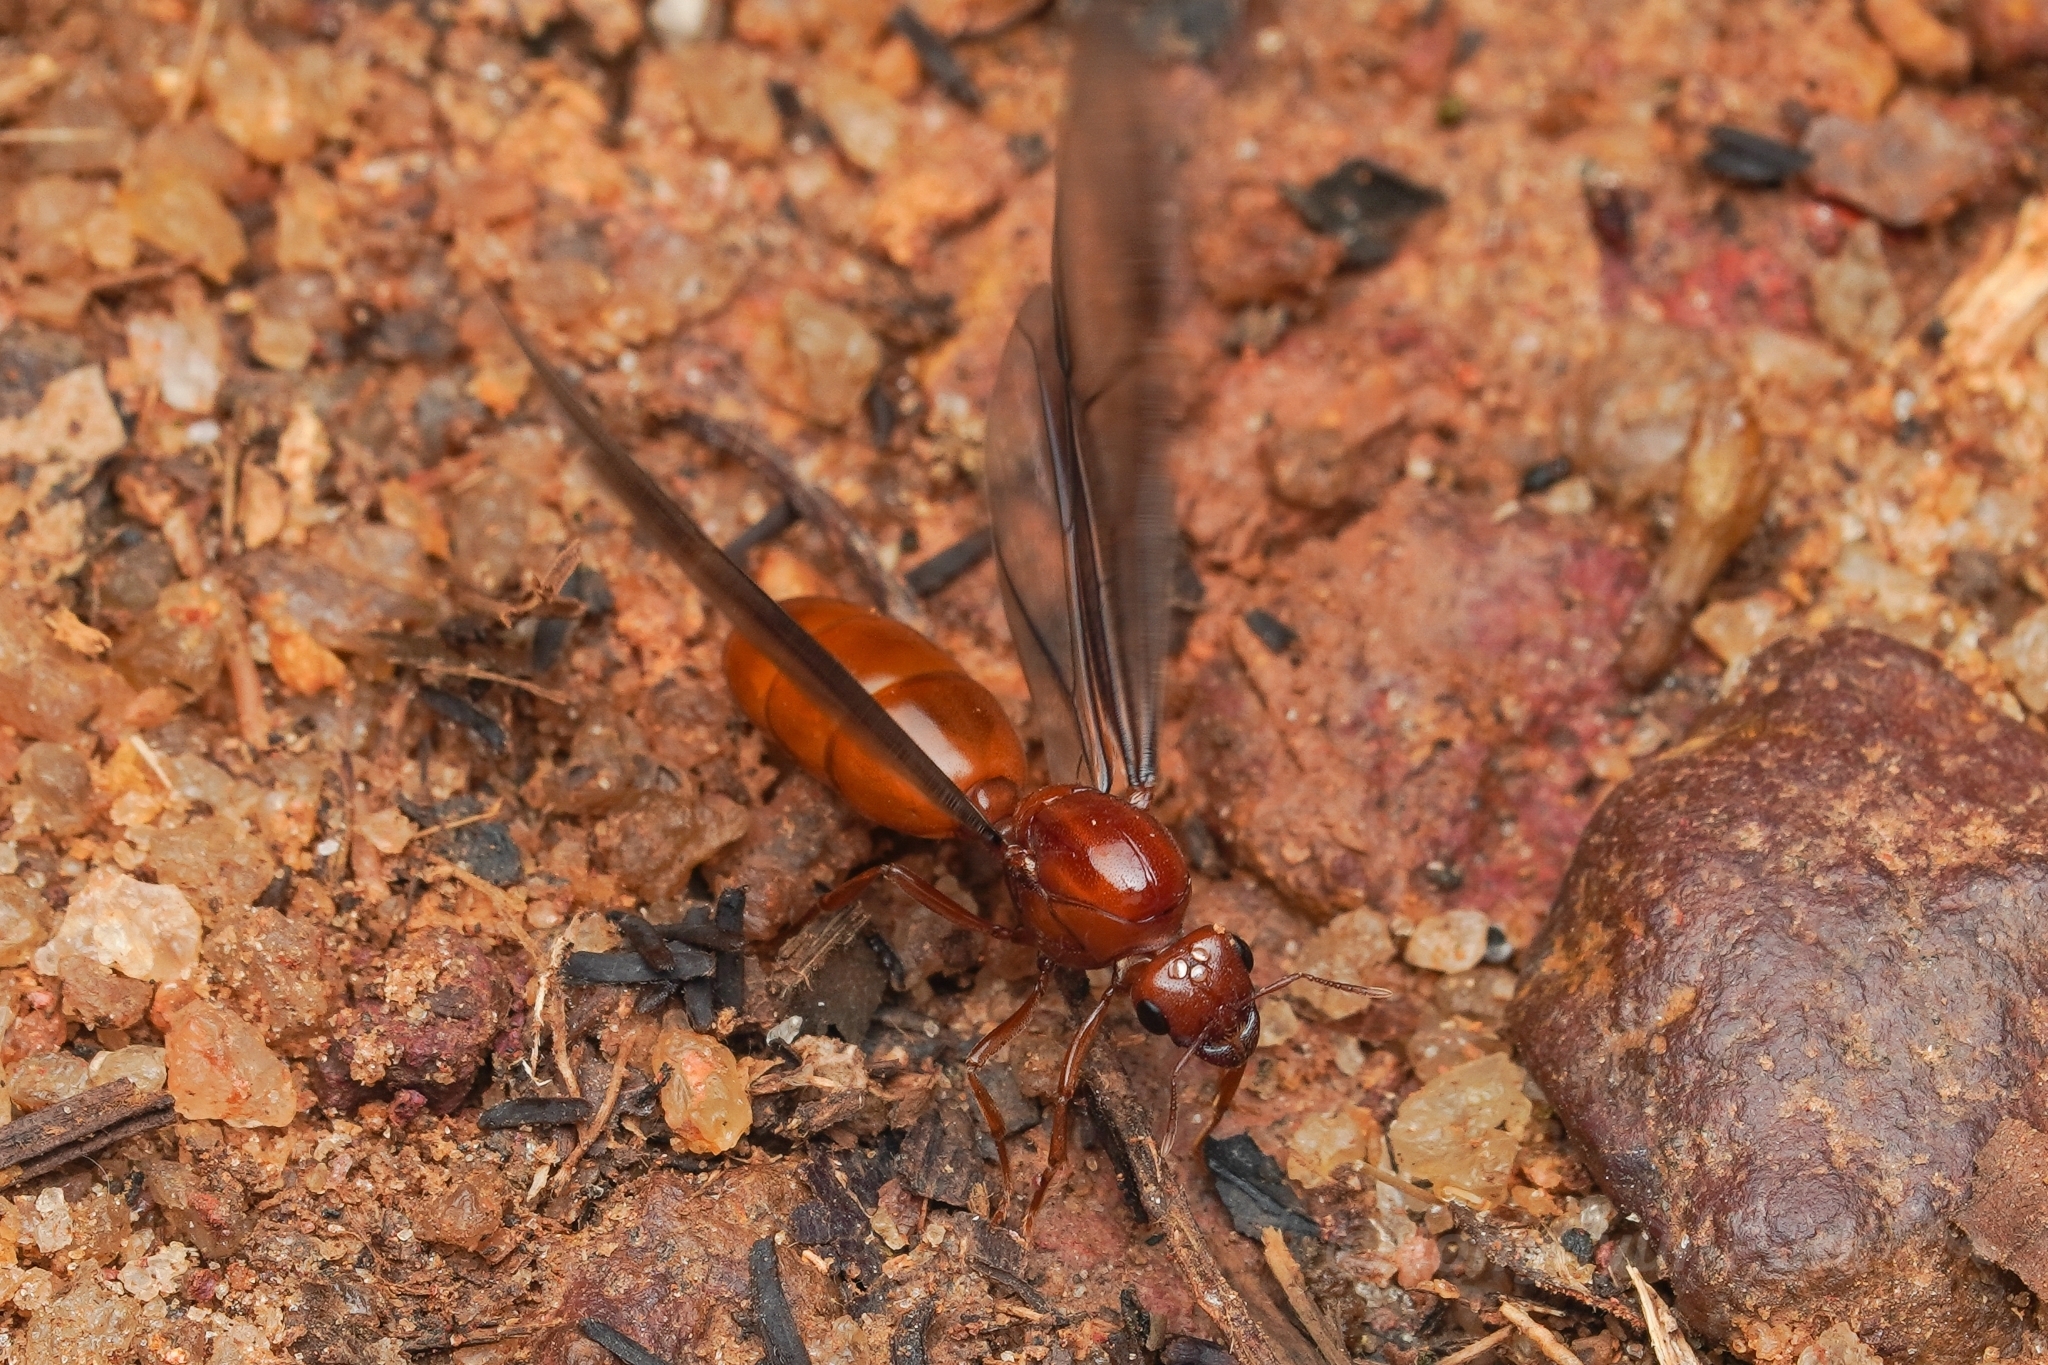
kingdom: Animalia
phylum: Arthropoda
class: Insecta
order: Hymenoptera
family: Formicidae
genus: Carebara
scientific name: Carebara bicarinata
